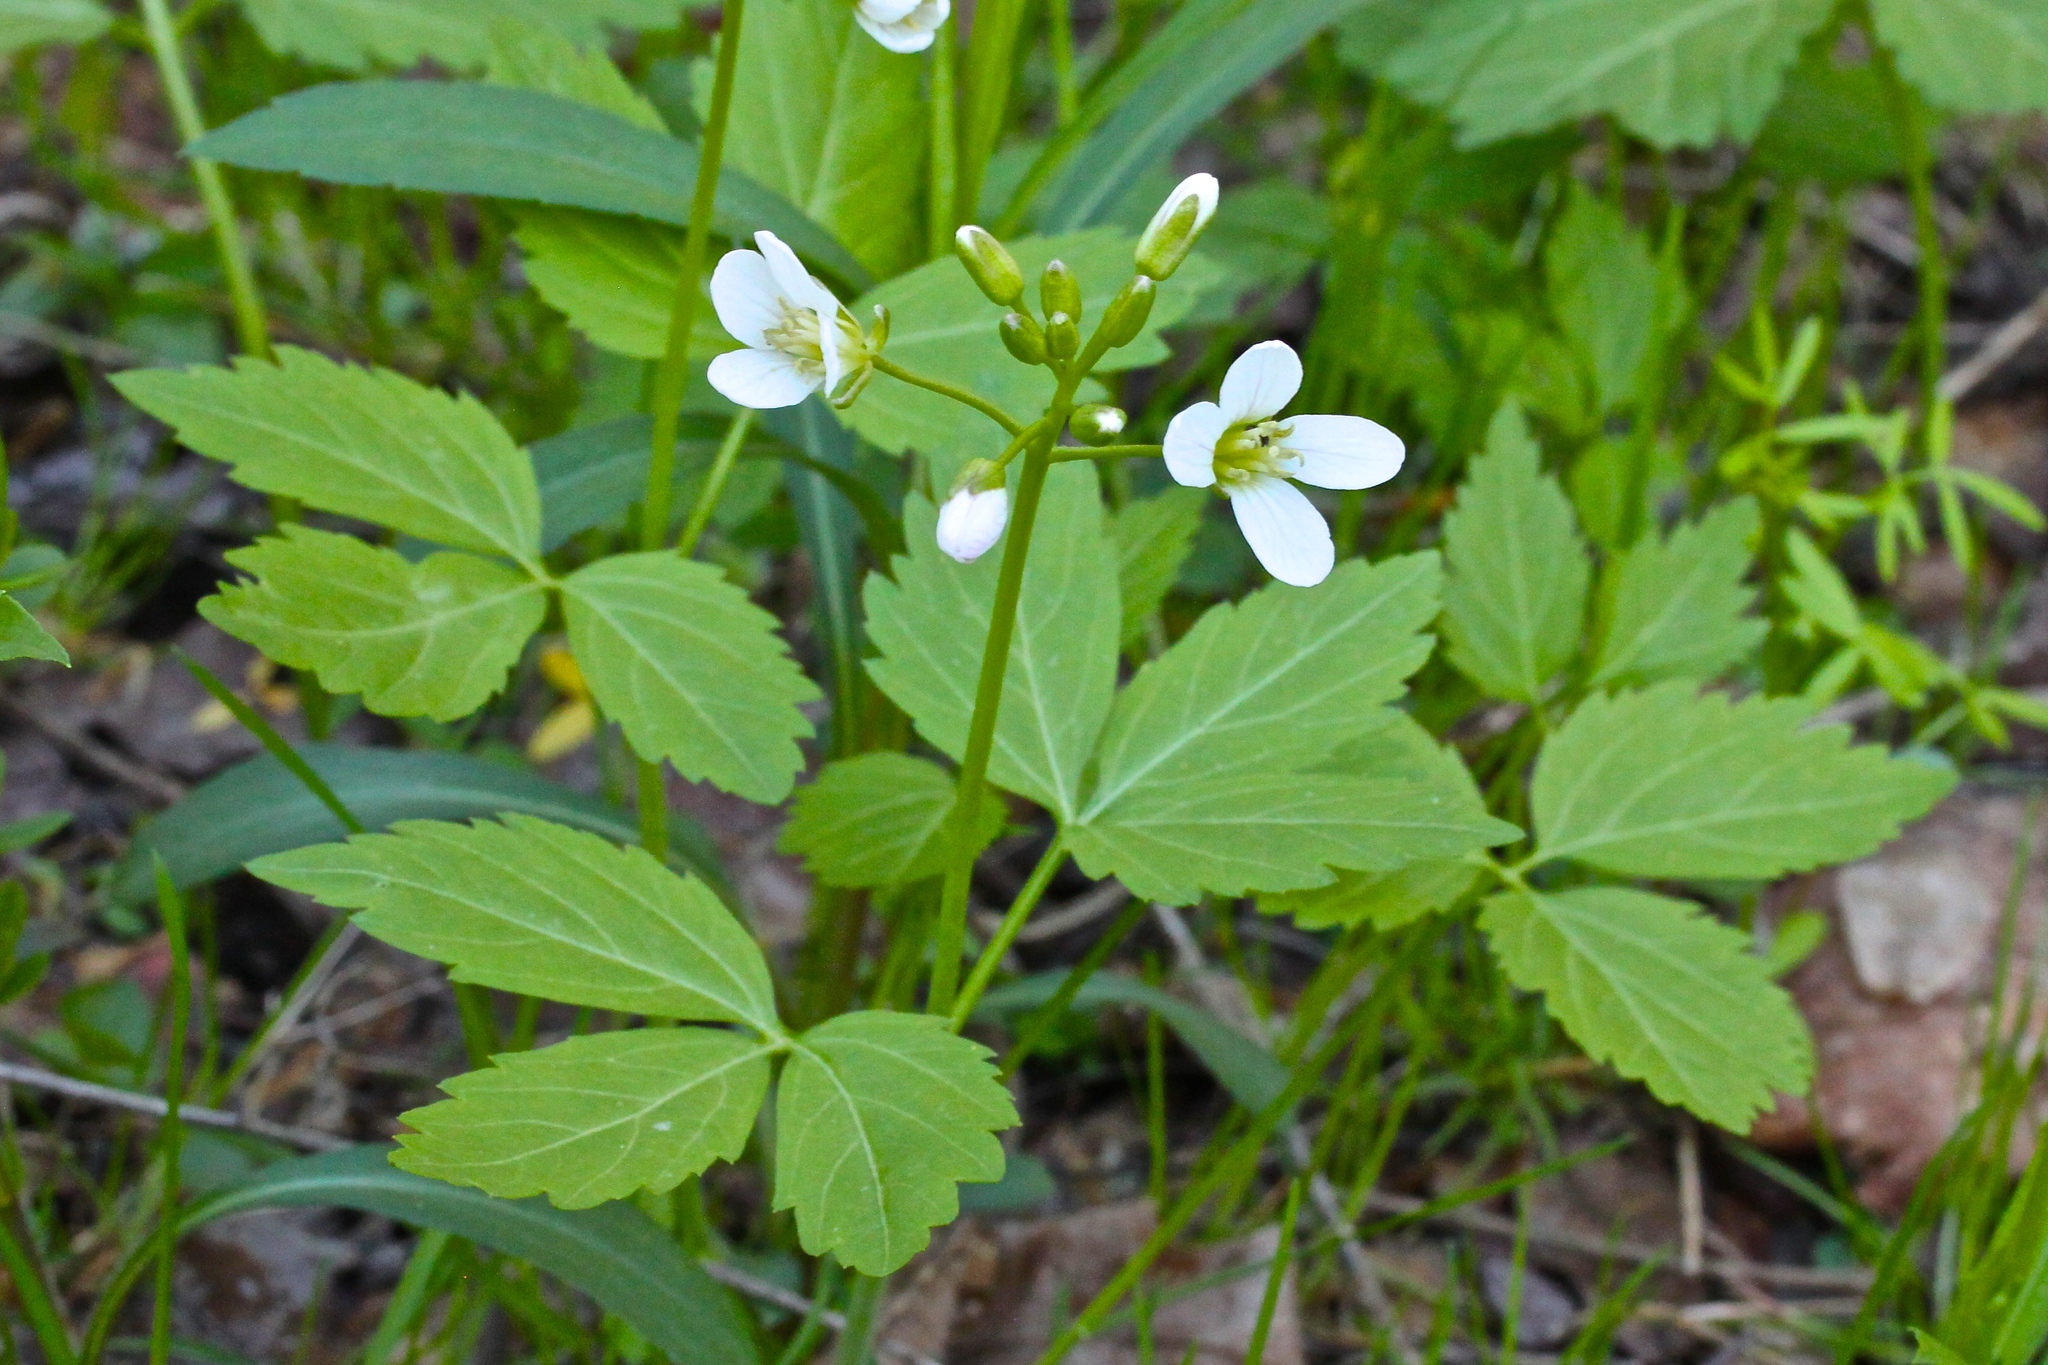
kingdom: Plantae
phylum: Tracheophyta
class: Magnoliopsida
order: Brassicales
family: Brassicaceae
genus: Cardamine
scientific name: Cardamine diphylla
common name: Broad-leaved toothwort
